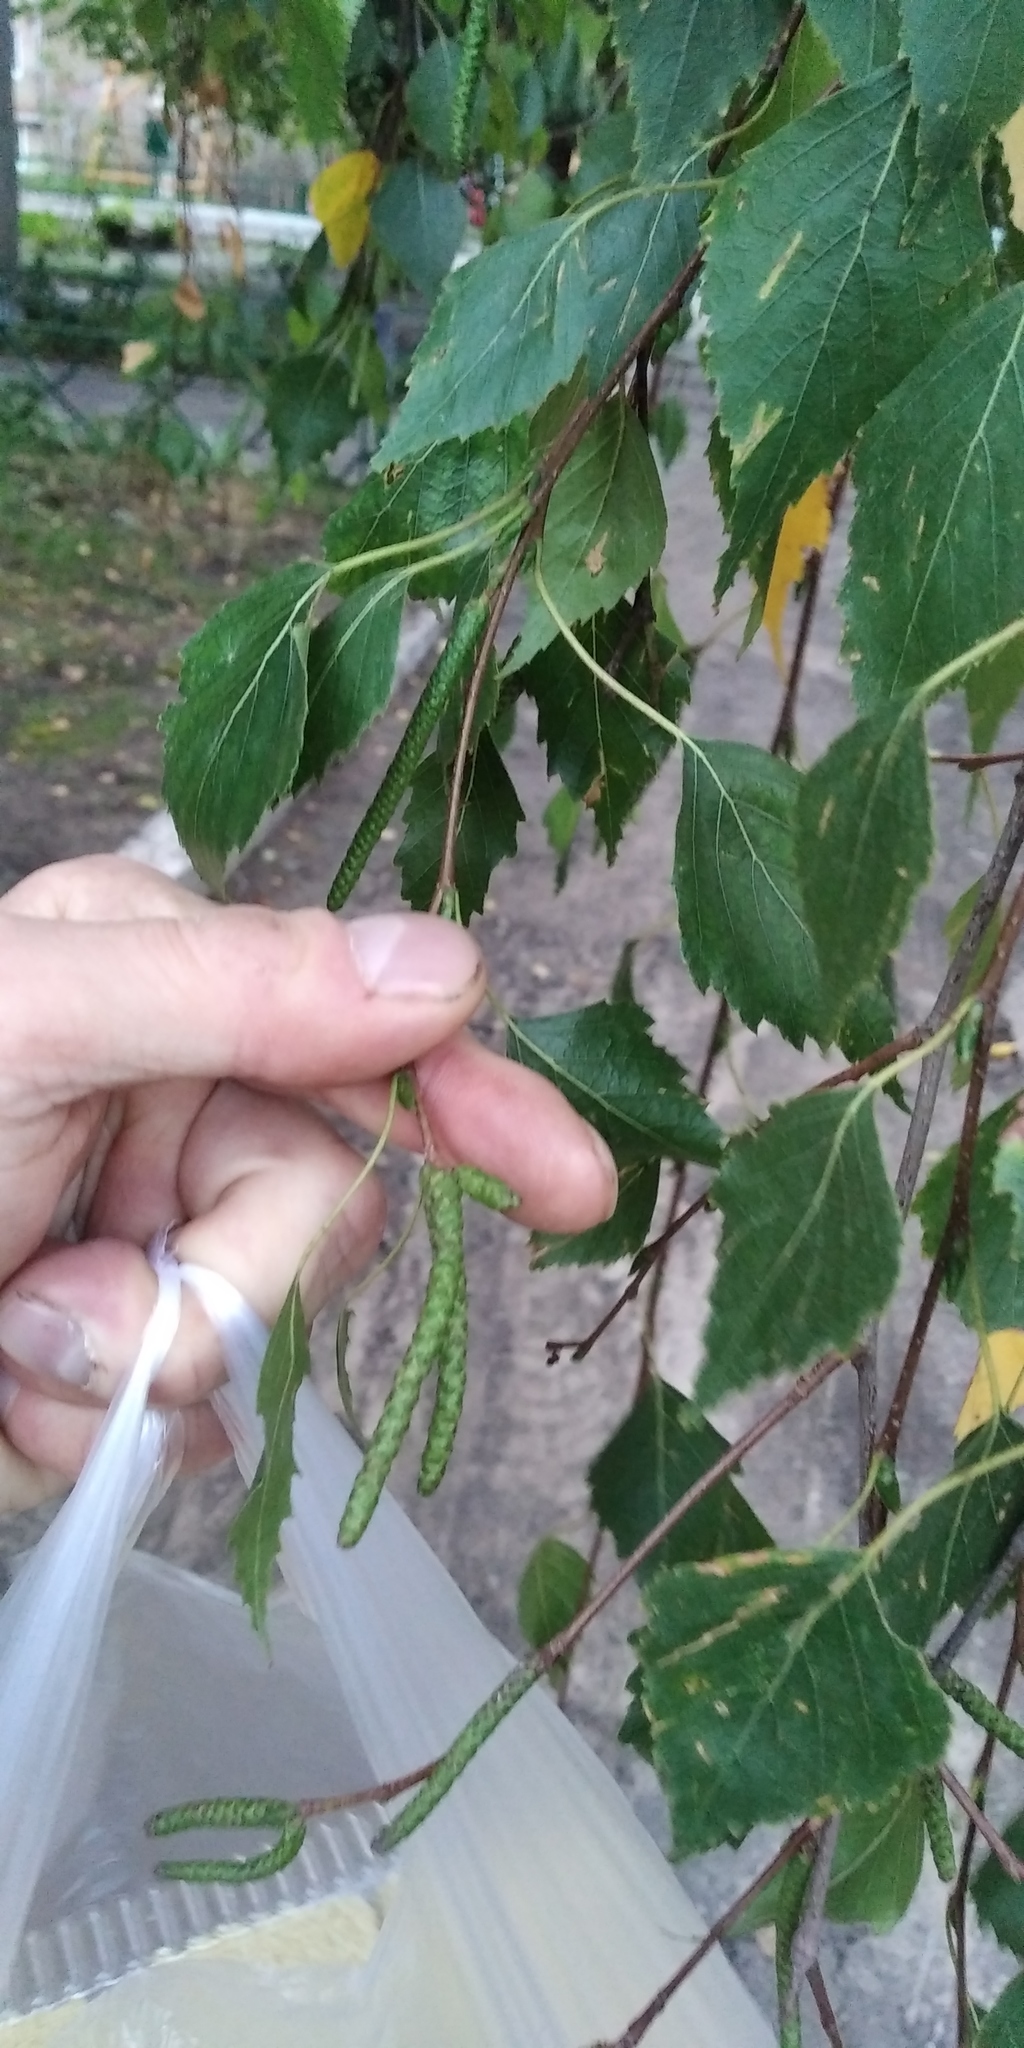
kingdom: Plantae
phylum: Tracheophyta
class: Magnoliopsida
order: Fagales
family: Betulaceae
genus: Betula
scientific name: Betula pendula
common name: Silver birch
